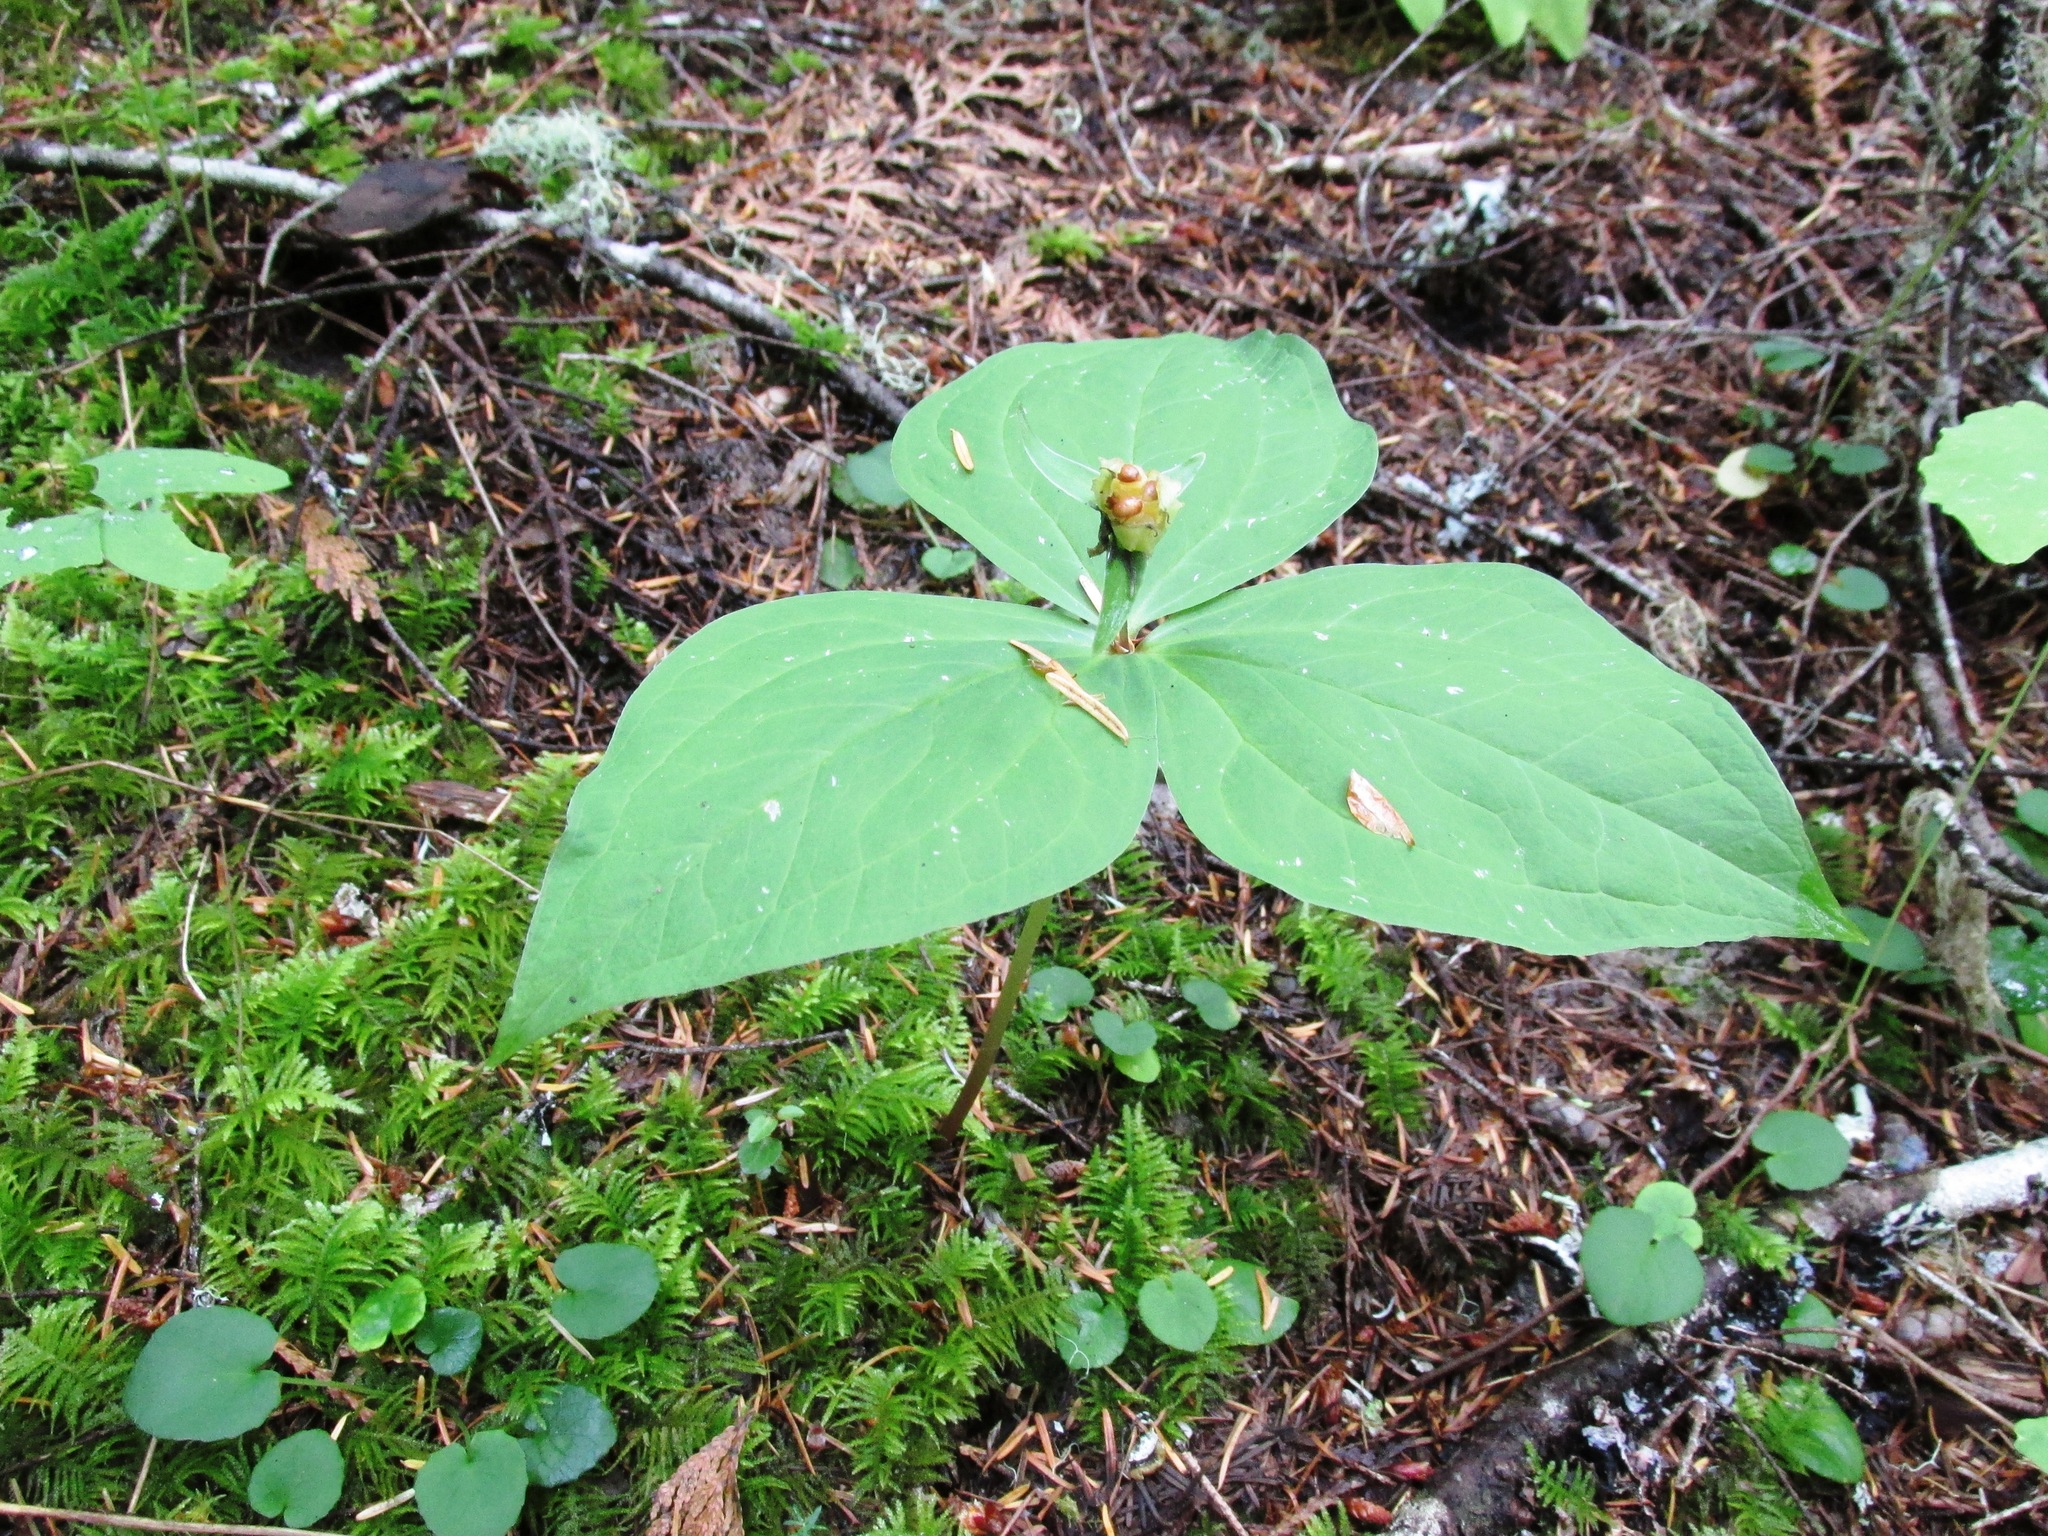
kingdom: Plantae
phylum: Tracheophyta
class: Liliopsida
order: Liliales
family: Melanthiaceae
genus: Trillium
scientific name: Trillium ovatum
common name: Pacific trillium
